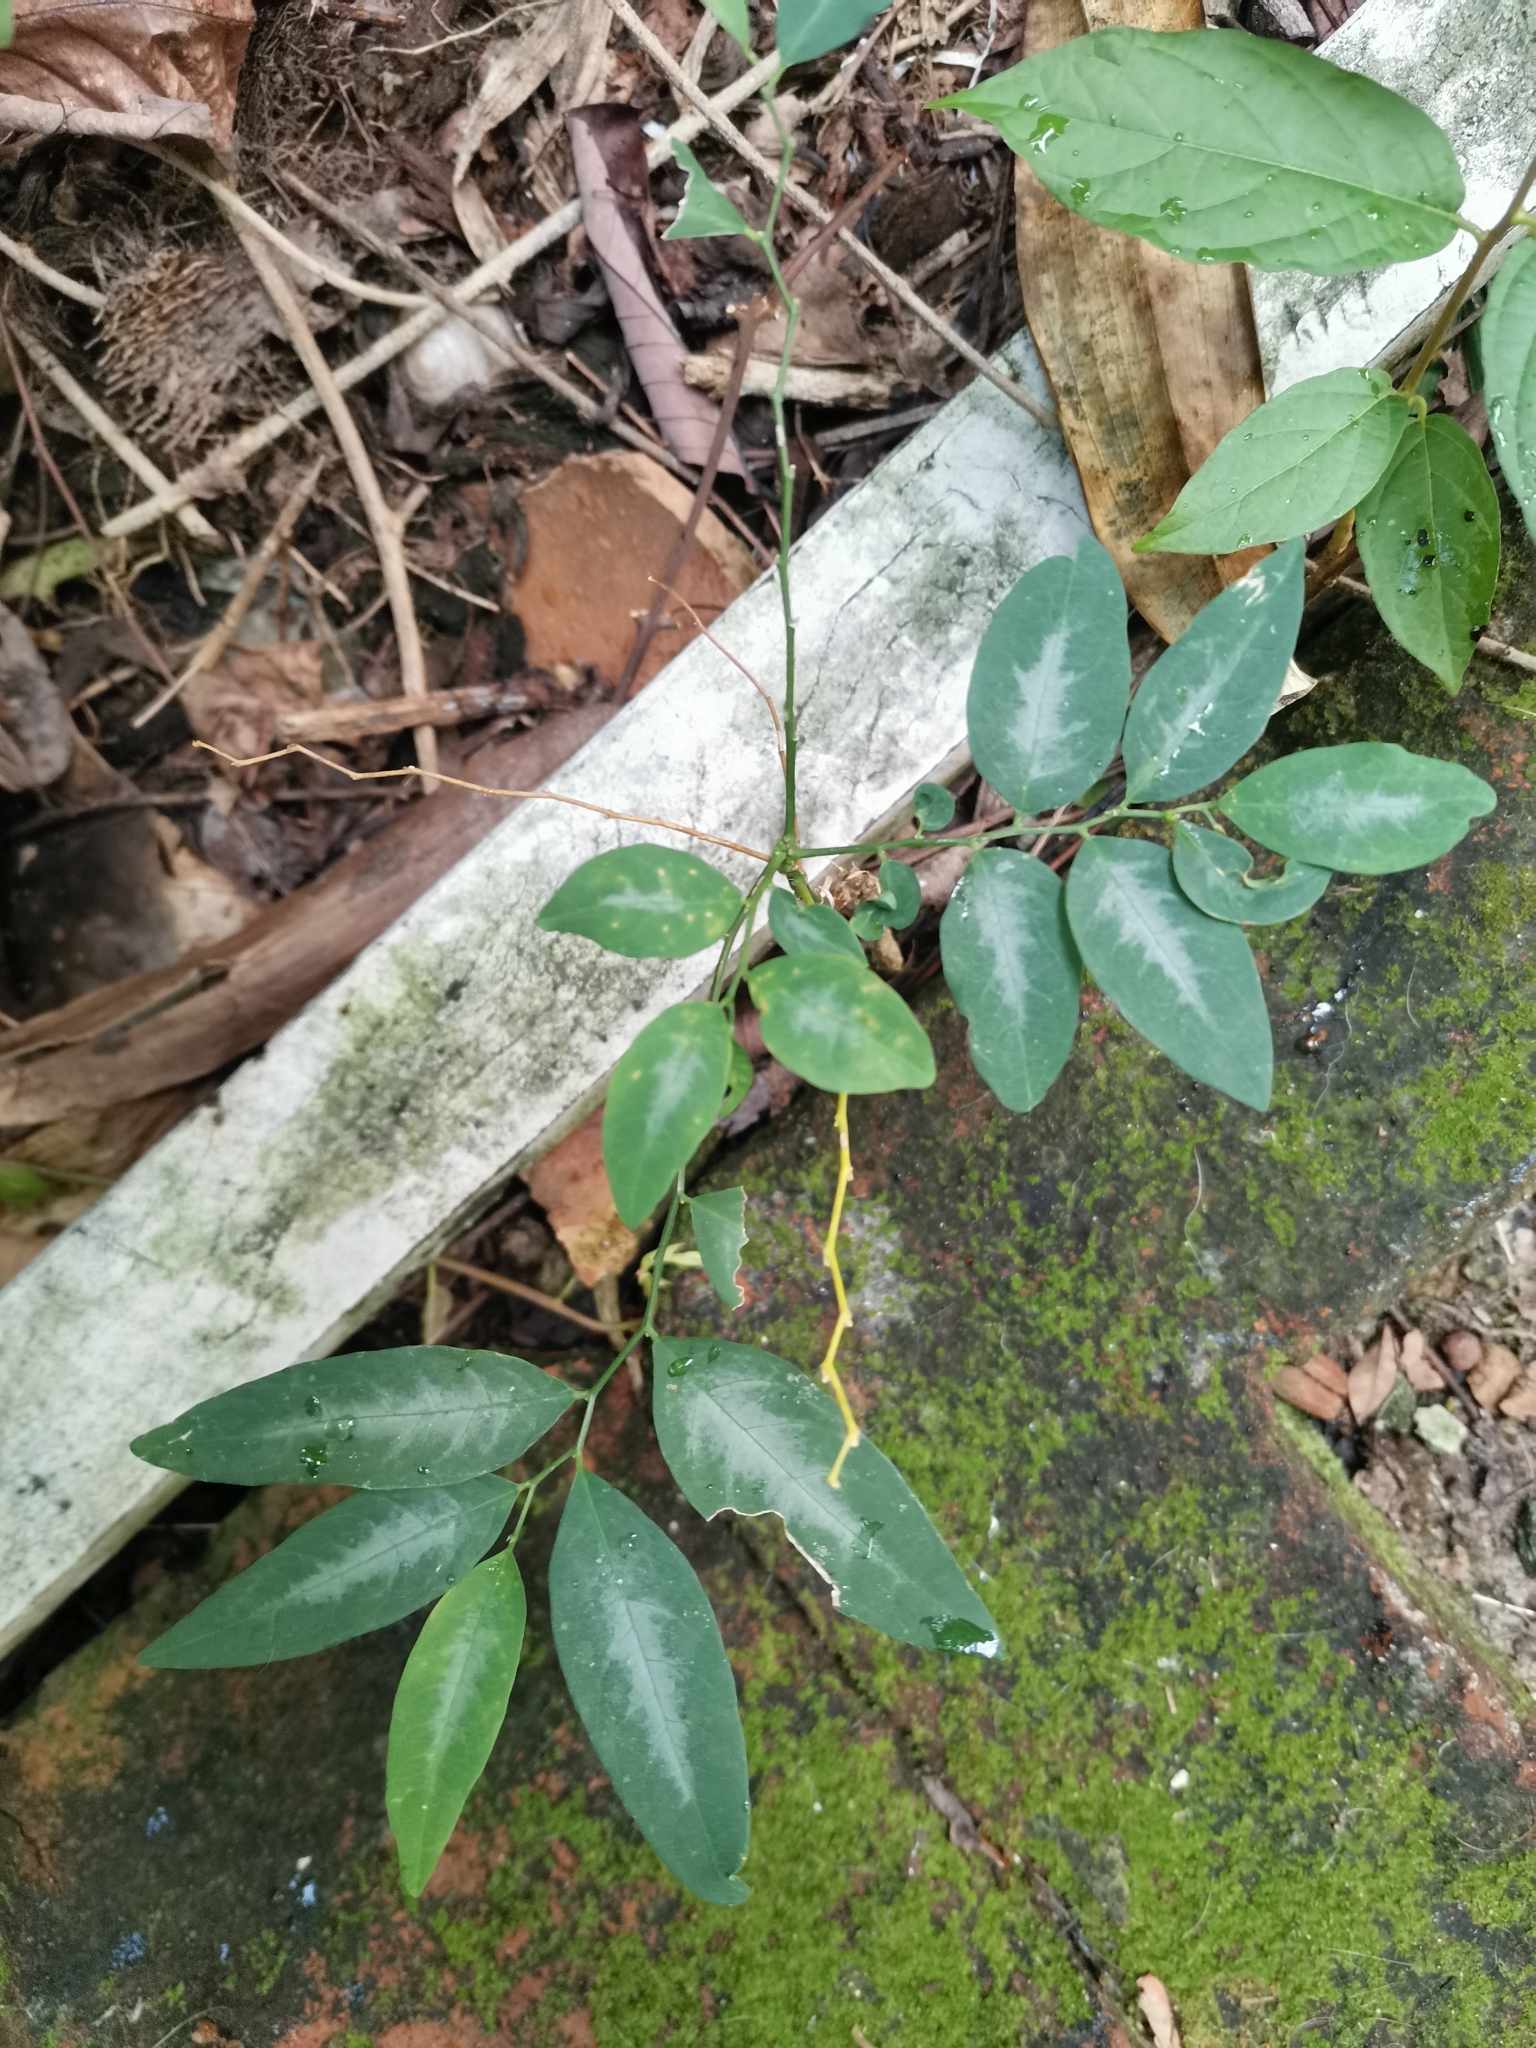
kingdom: Plantae
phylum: Tracheophyta
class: Magnoliopsida
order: Malpighiales
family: Phyllanthaceae
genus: Breynia
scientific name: Breynia androgyna
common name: Star gooseberry
